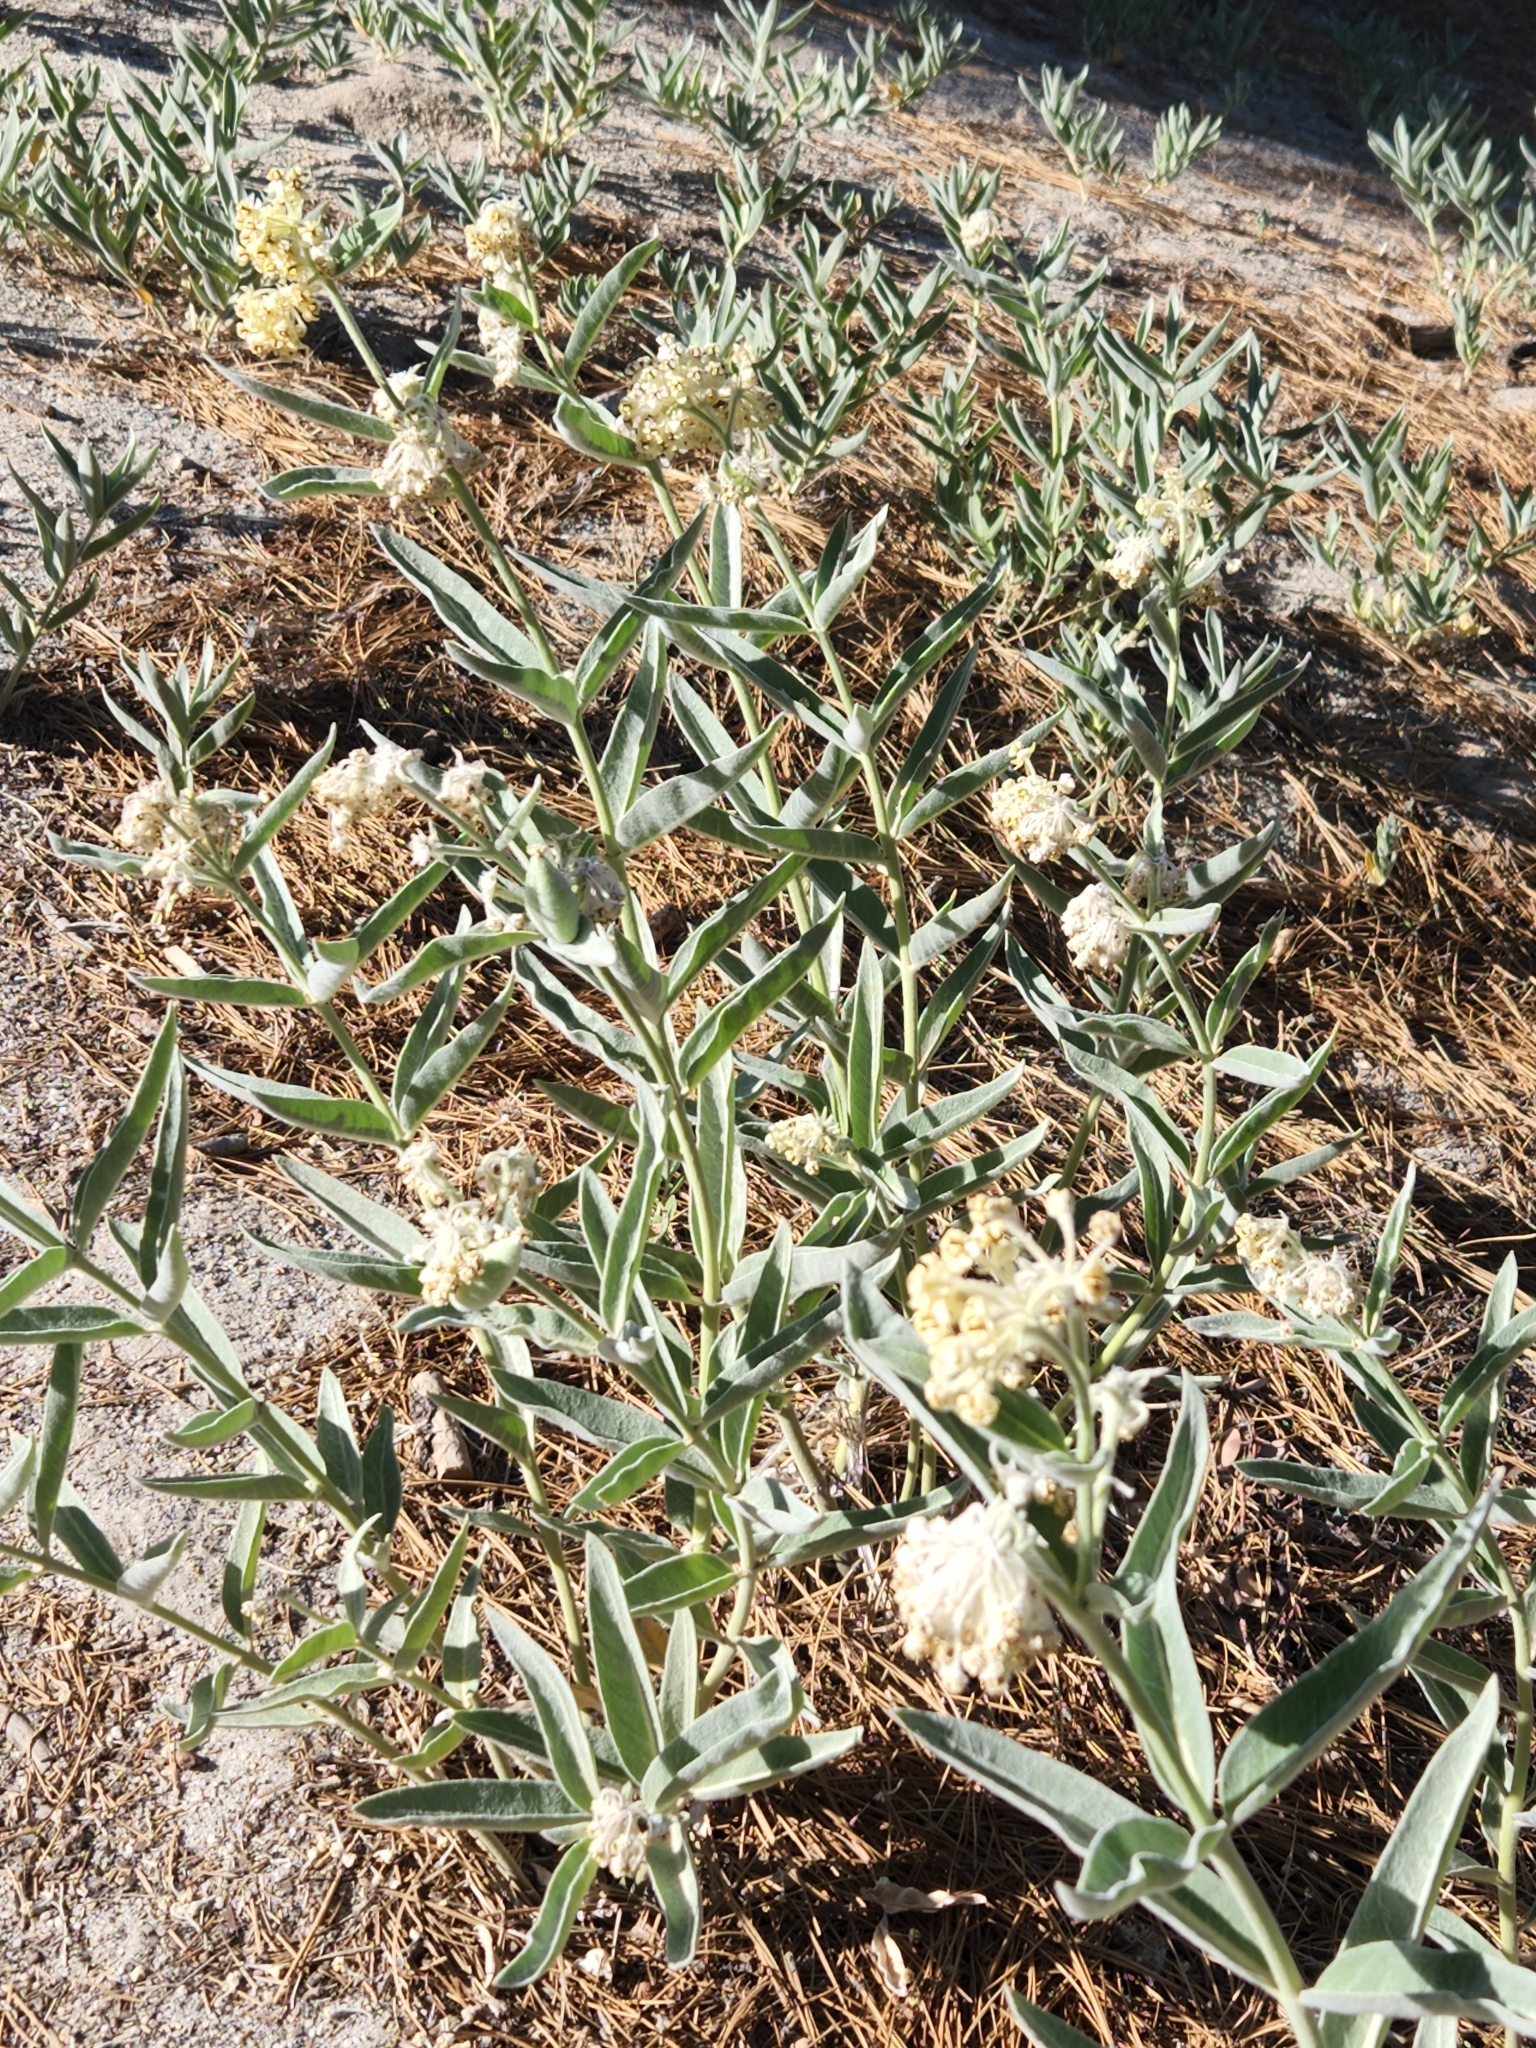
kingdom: Plantae
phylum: Tracheophyta
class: Magnoliopsida
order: Gentianales
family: Apocynaceae
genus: Asclepias
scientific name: Asclepias eriocarpa
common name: Indian milkweed
